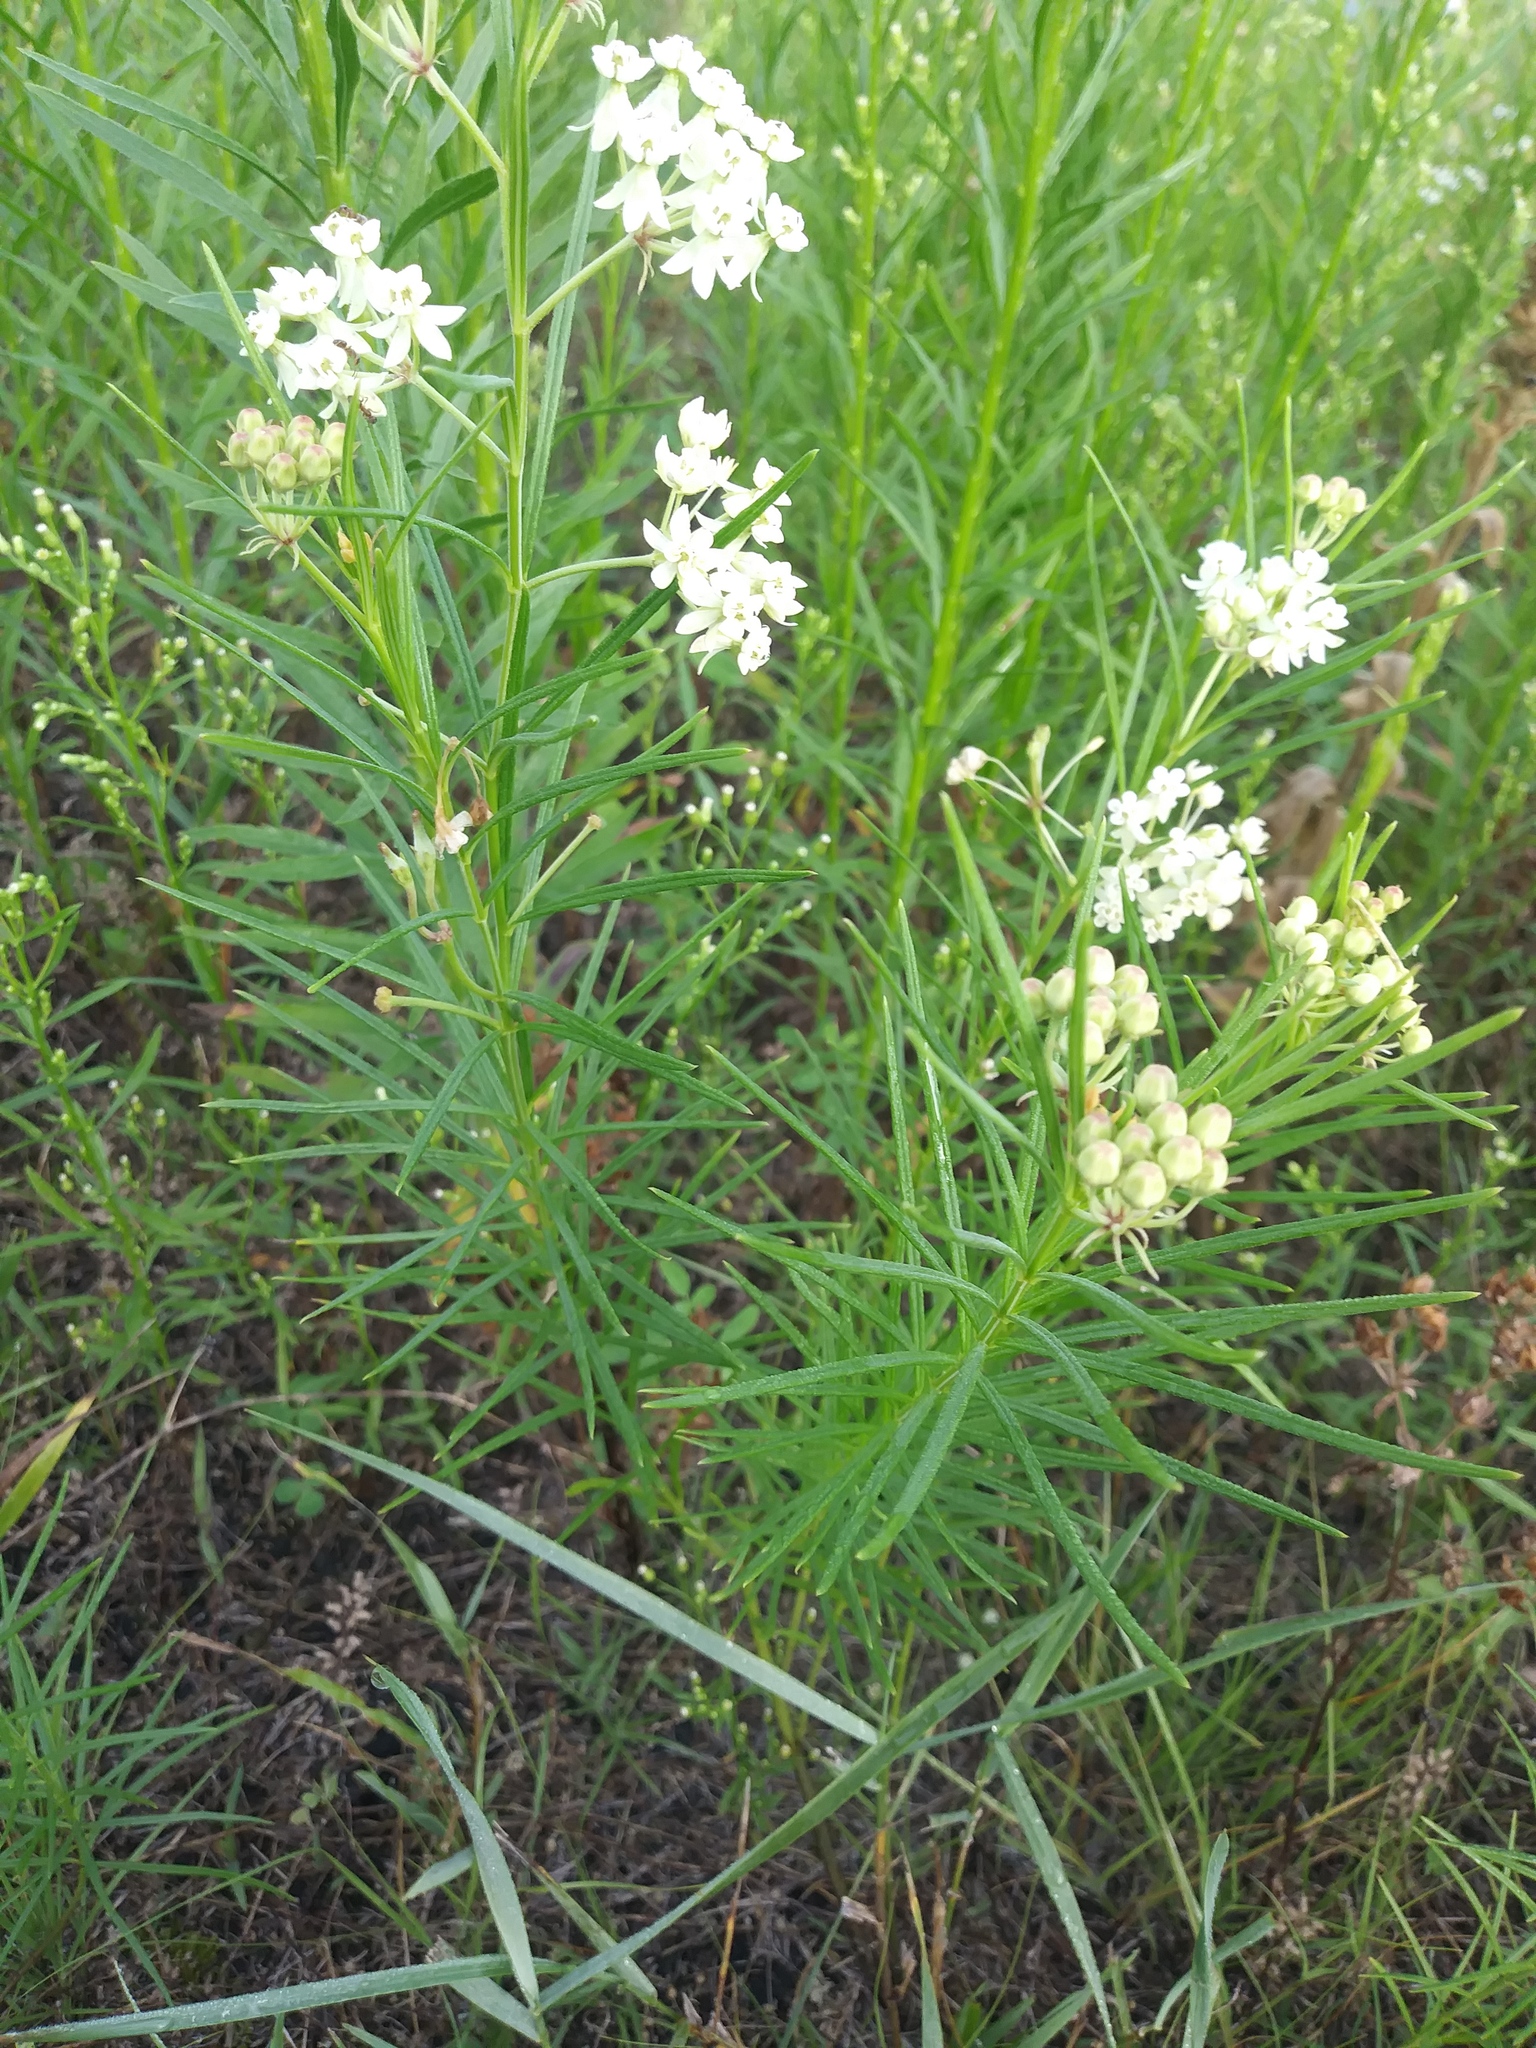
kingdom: Plantae
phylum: Tracheophyta
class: Magnoliopsida
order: Gentianales
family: Apocynaceae
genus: Asclepias
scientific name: Asclepias verticillata
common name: Eastern whorled milkweed
